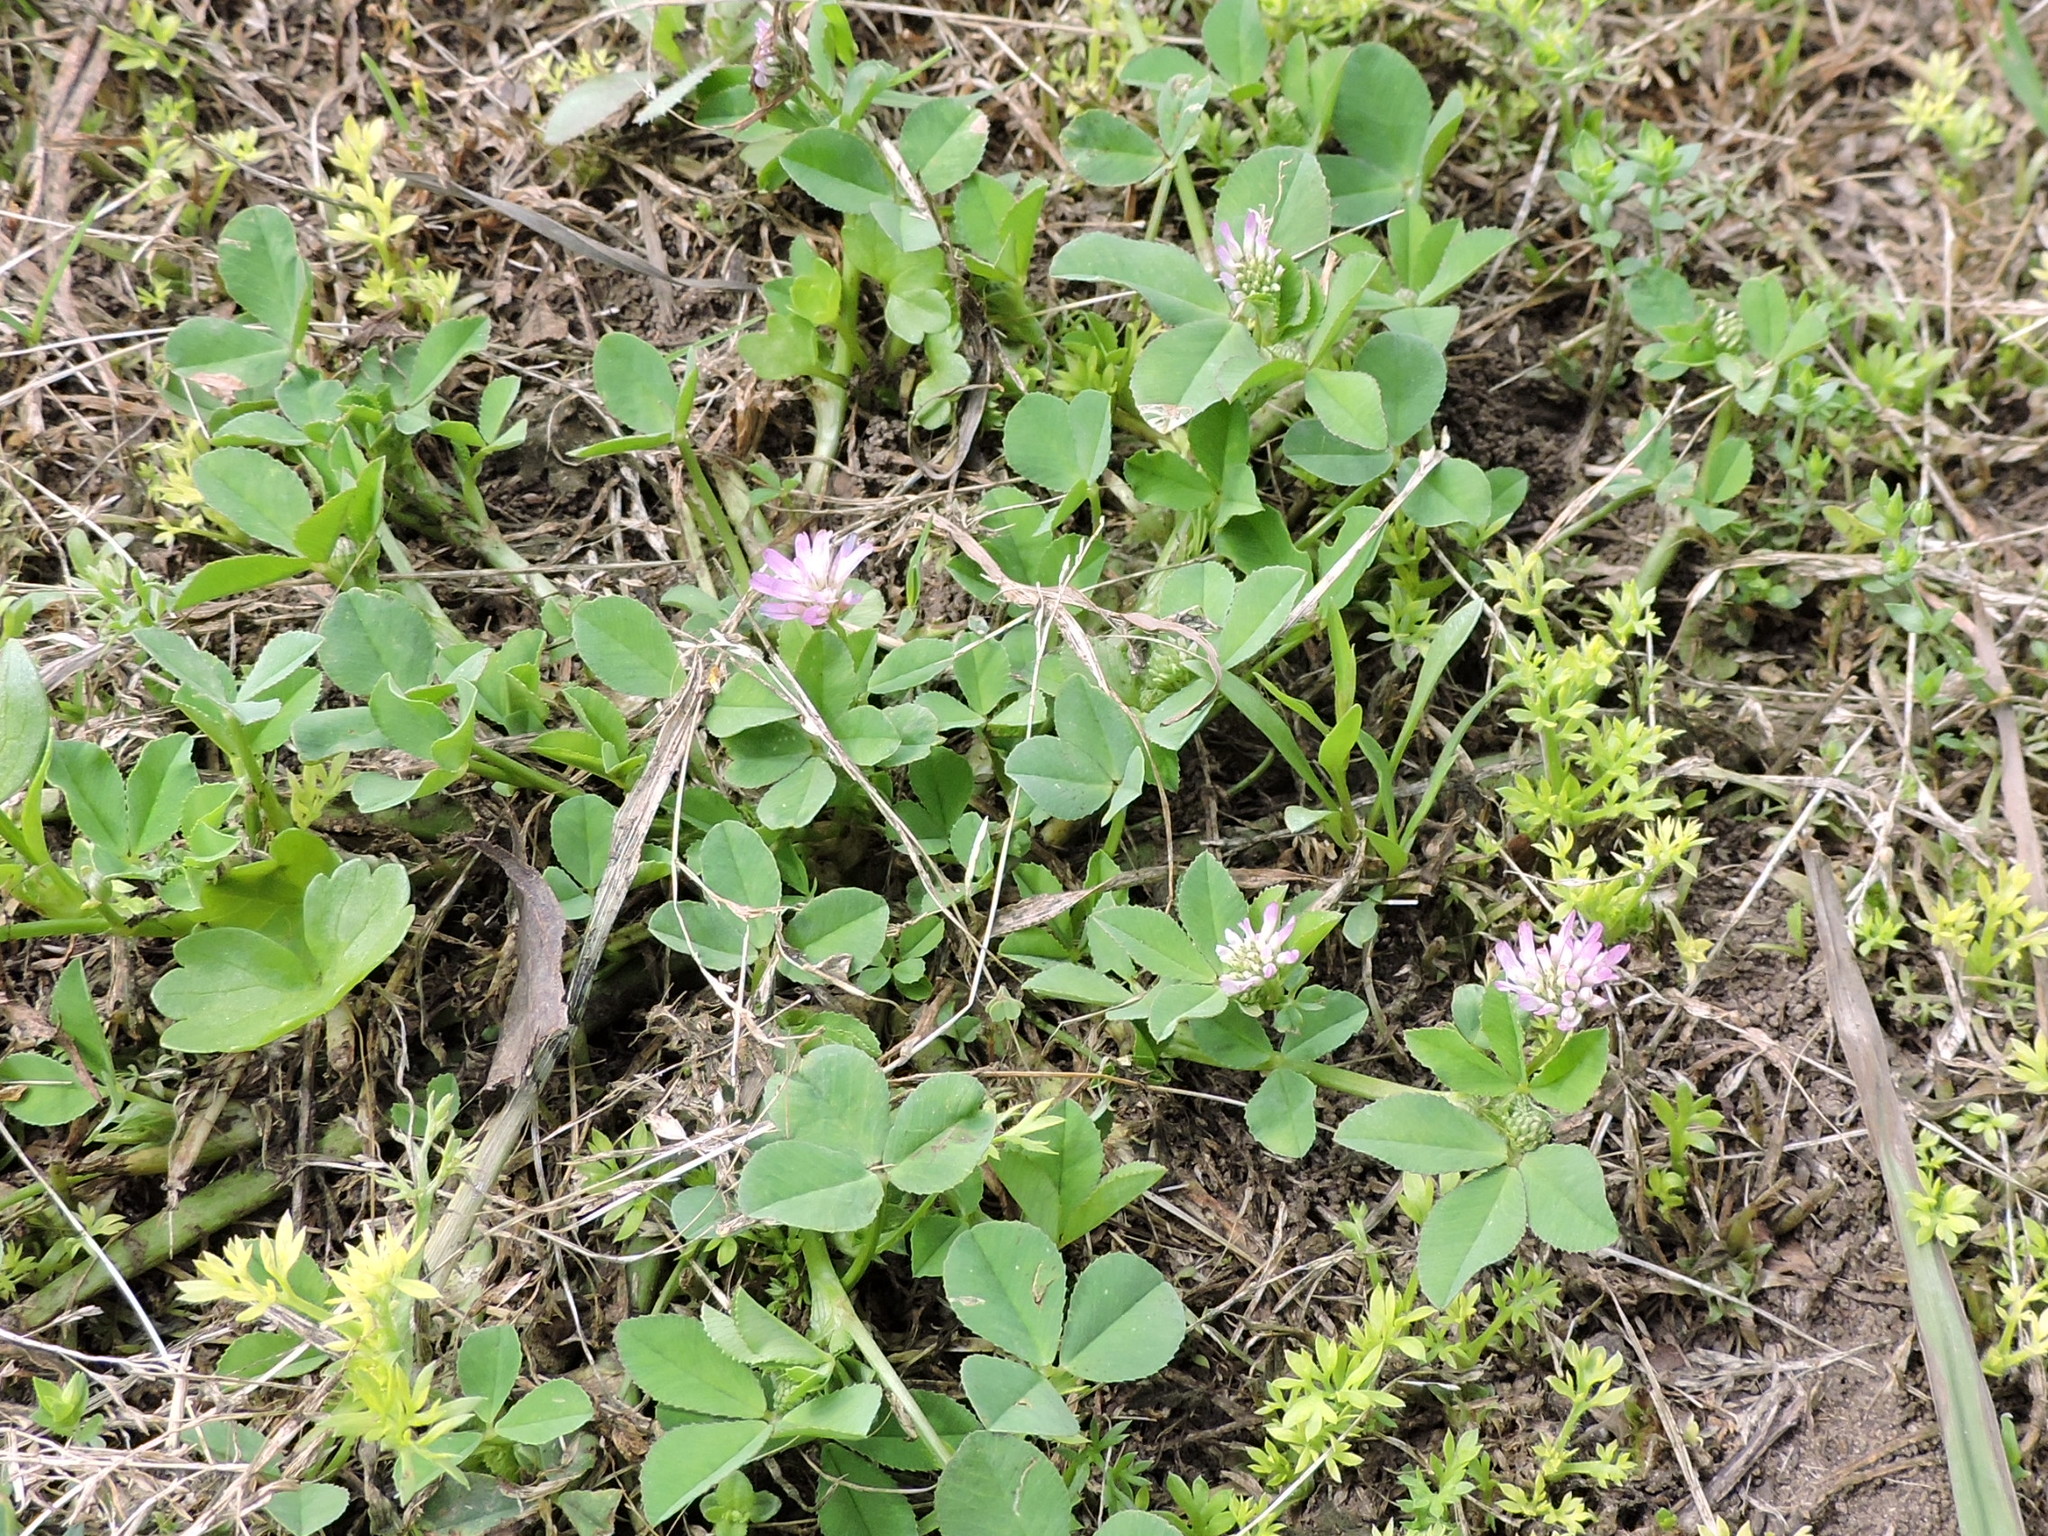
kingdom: Plantae
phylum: Tracheophyta
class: Magnoliopsida
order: Fabales
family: Fabaceae
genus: Trifolium
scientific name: Trifolium resupinatum
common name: Reversed clover
